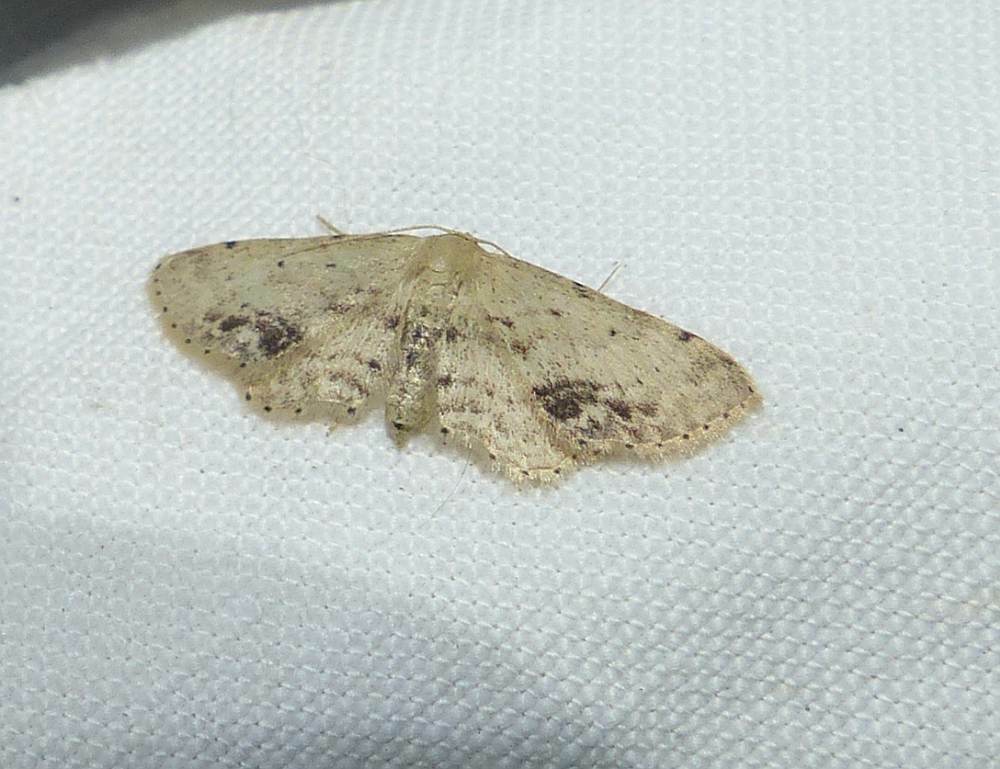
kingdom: Animalia
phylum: Arthropoda
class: Insecta
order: Lepidoptera
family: Geometridae
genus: Idaea
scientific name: Idaea dimidiata
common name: Single-dotted wave
